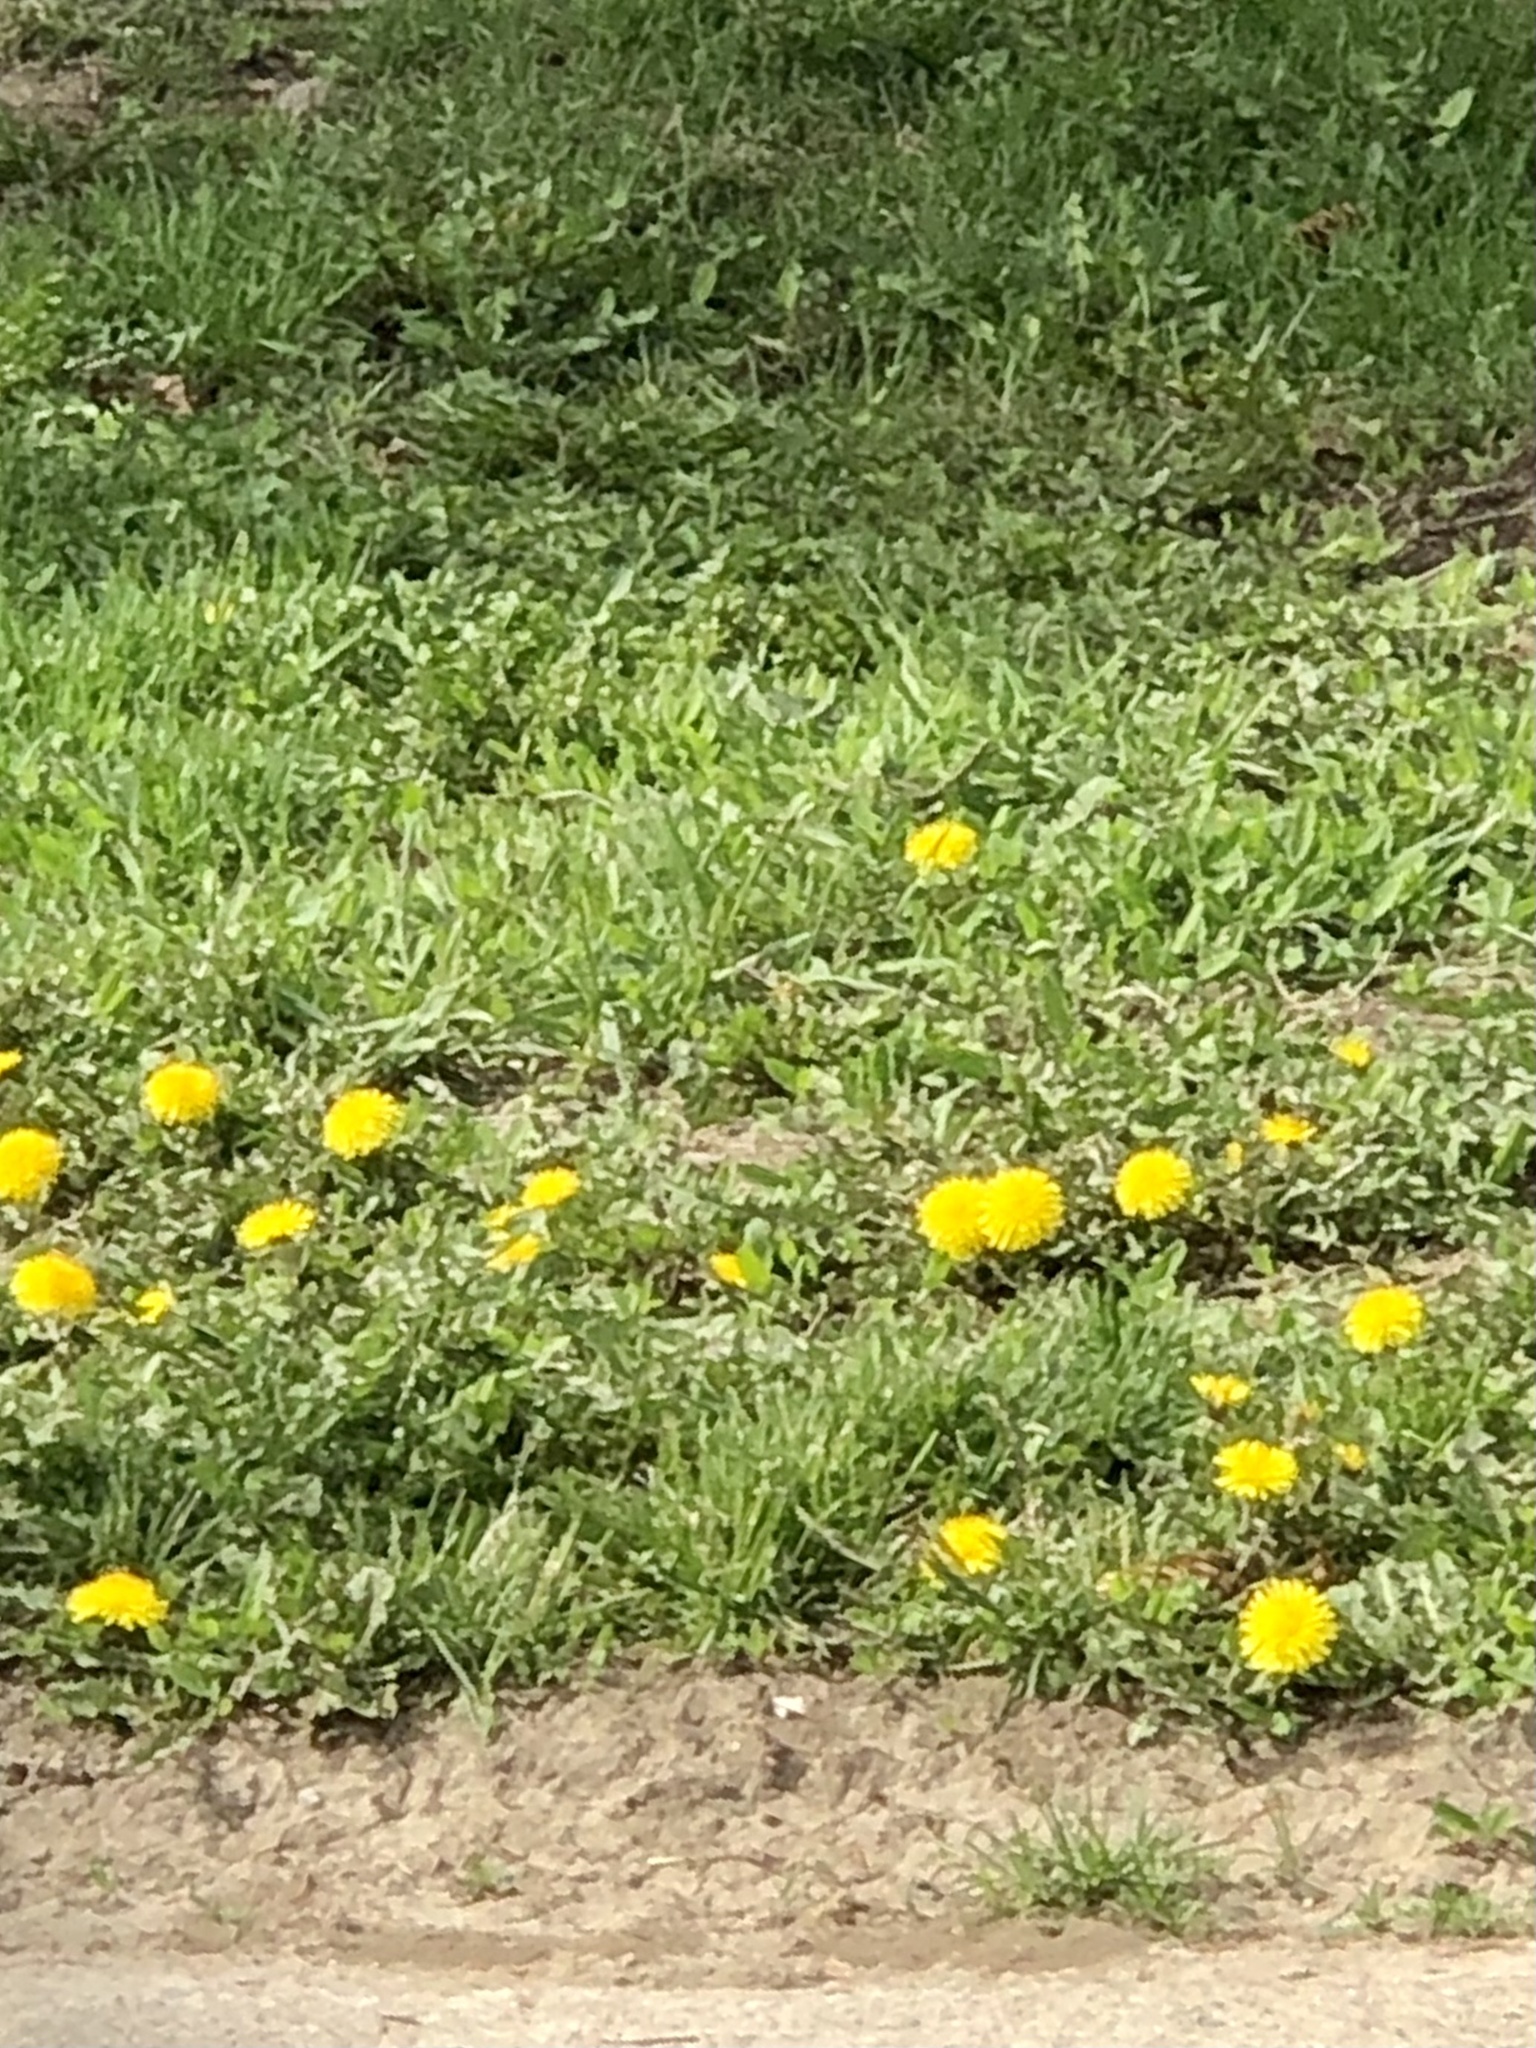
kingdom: Plantae
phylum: Tracheophyta
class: Magnoliopsida
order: Asterales
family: Asteraceae
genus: Taraxacum
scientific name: Taraxacum officinale
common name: Common dandelion
